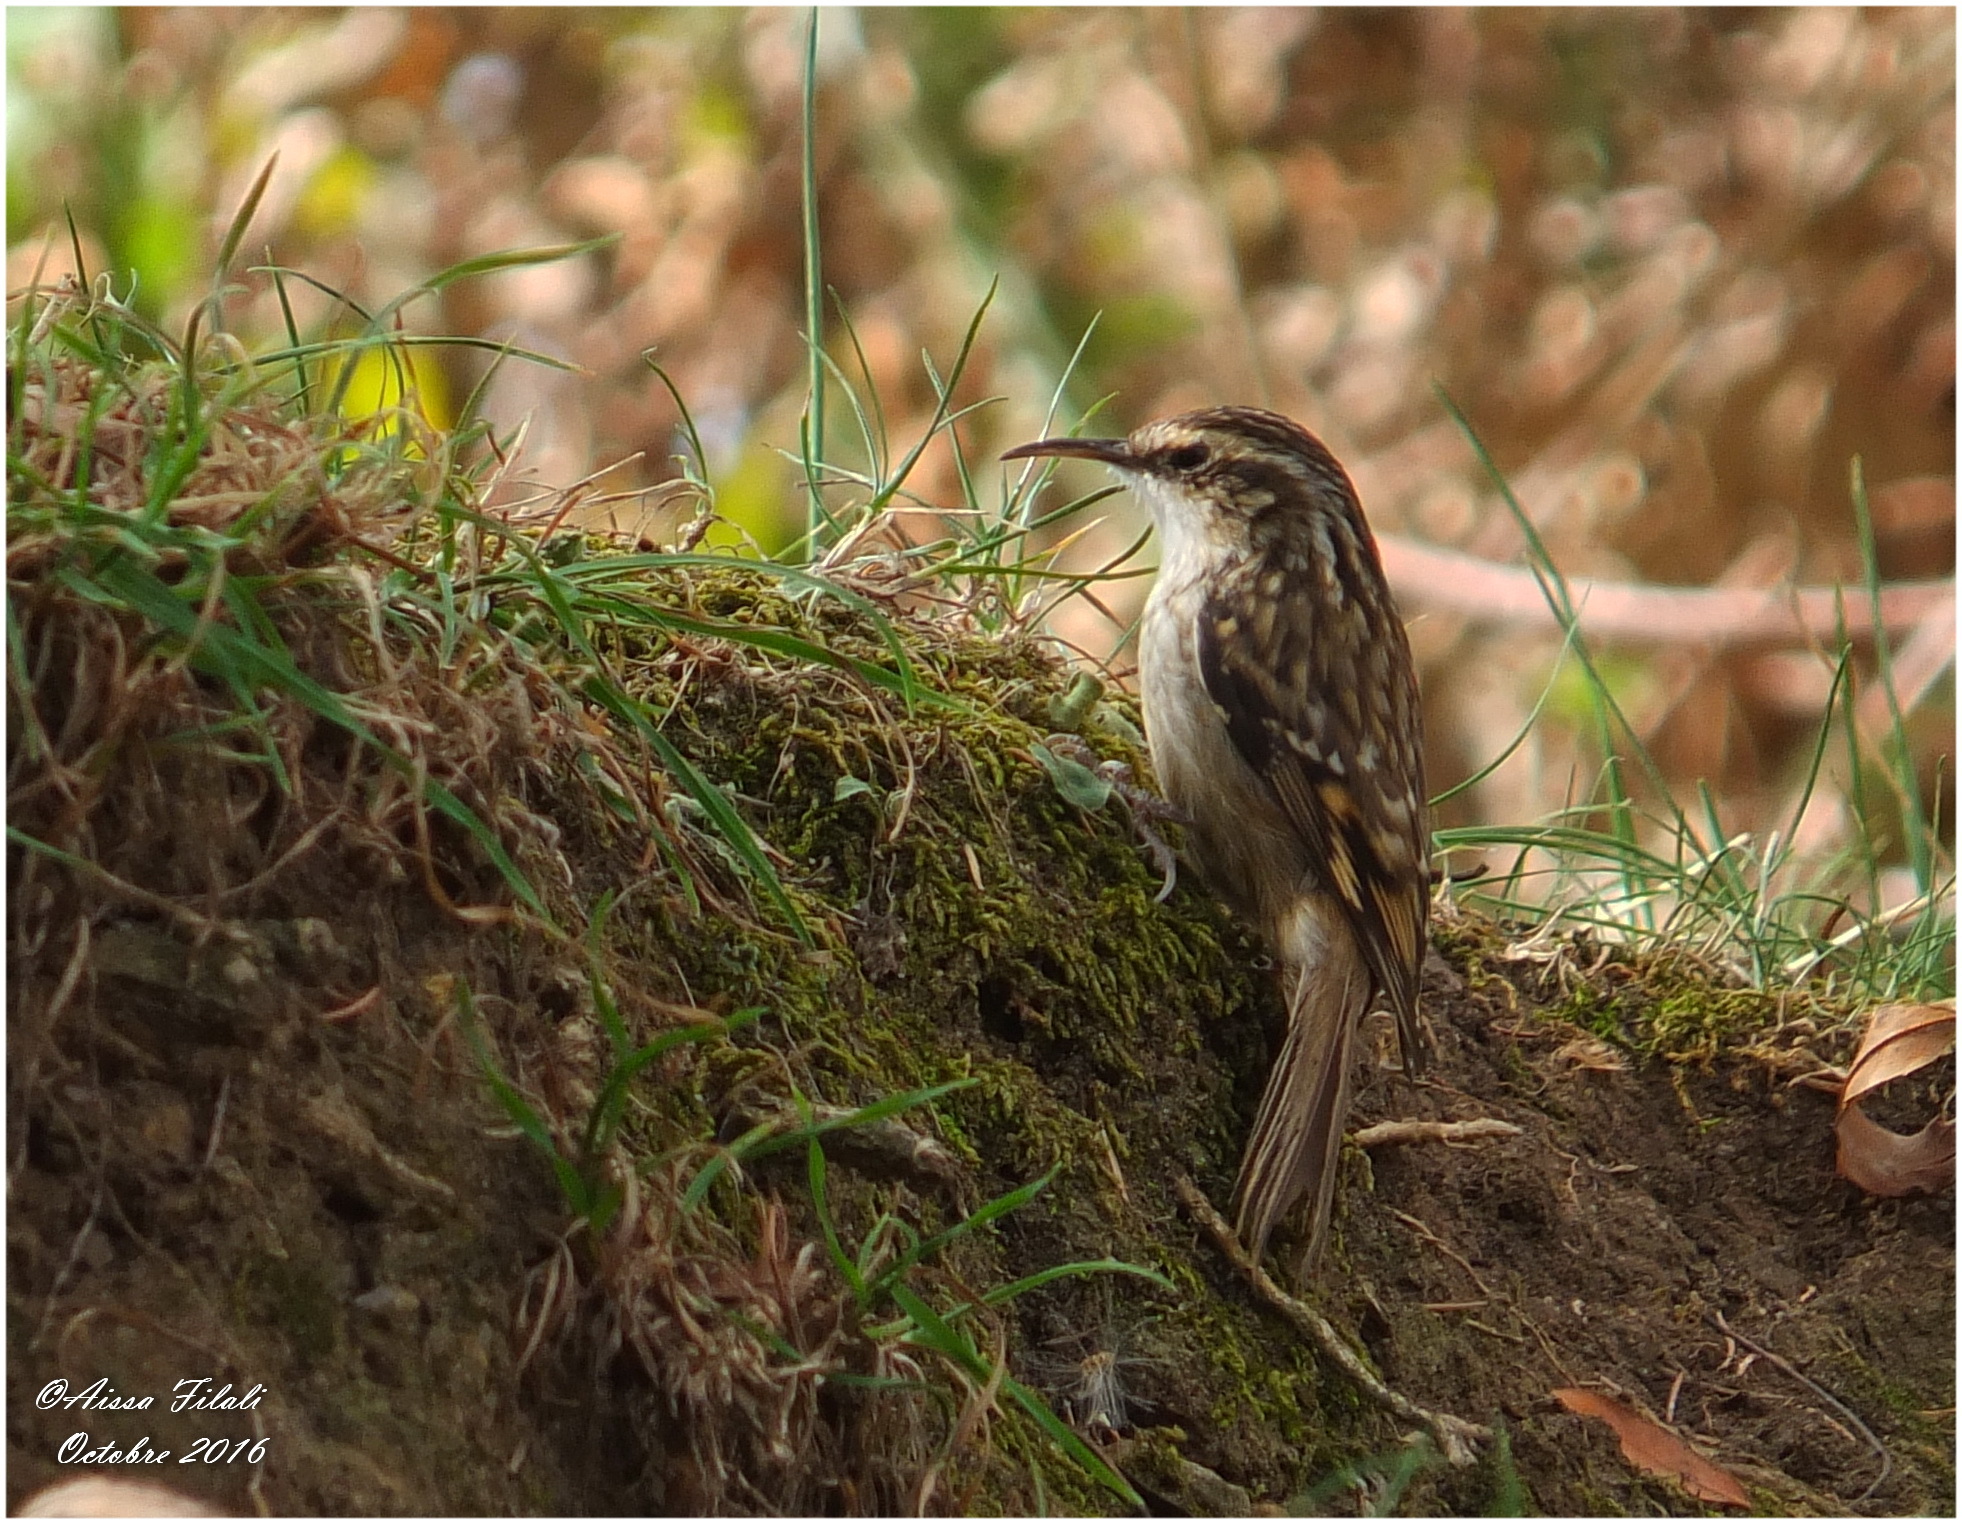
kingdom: Animalia
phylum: Chordata
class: Aves
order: Passeriformes
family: Certhiidae
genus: Certhia
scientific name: Certhia brachydactyla
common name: Short-toed treecreeper
